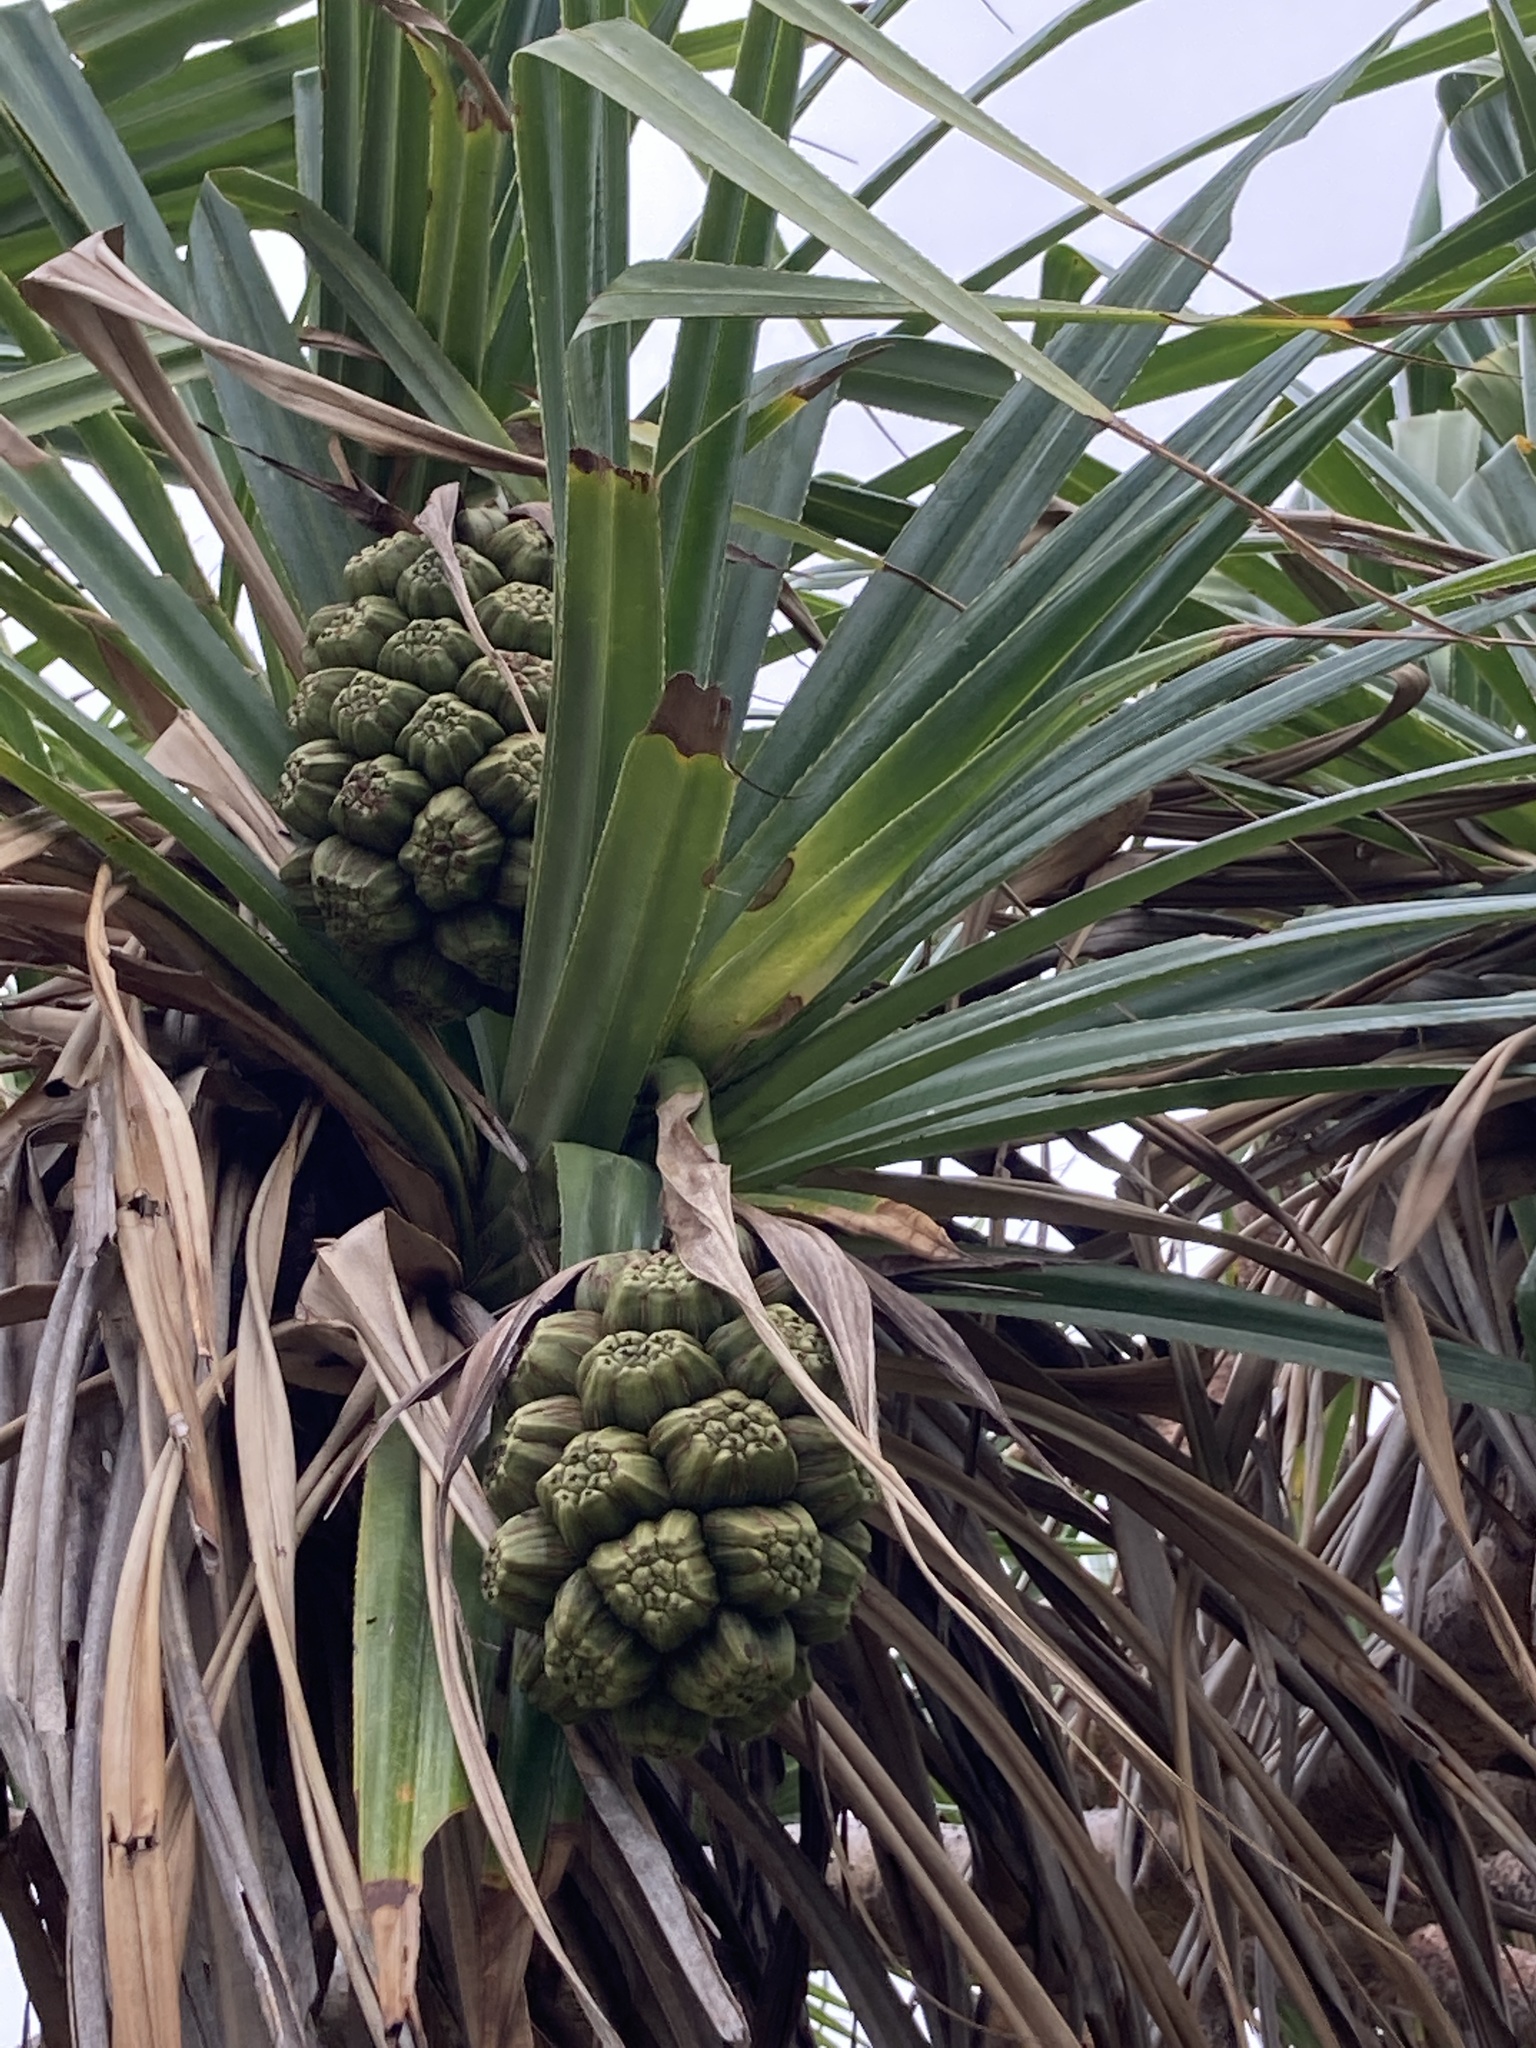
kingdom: Plantae
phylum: Tracheophyta
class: Liliopsida
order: Pandanales
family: Pandanaceae
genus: Pandanus
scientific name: Pandanus tectorius
